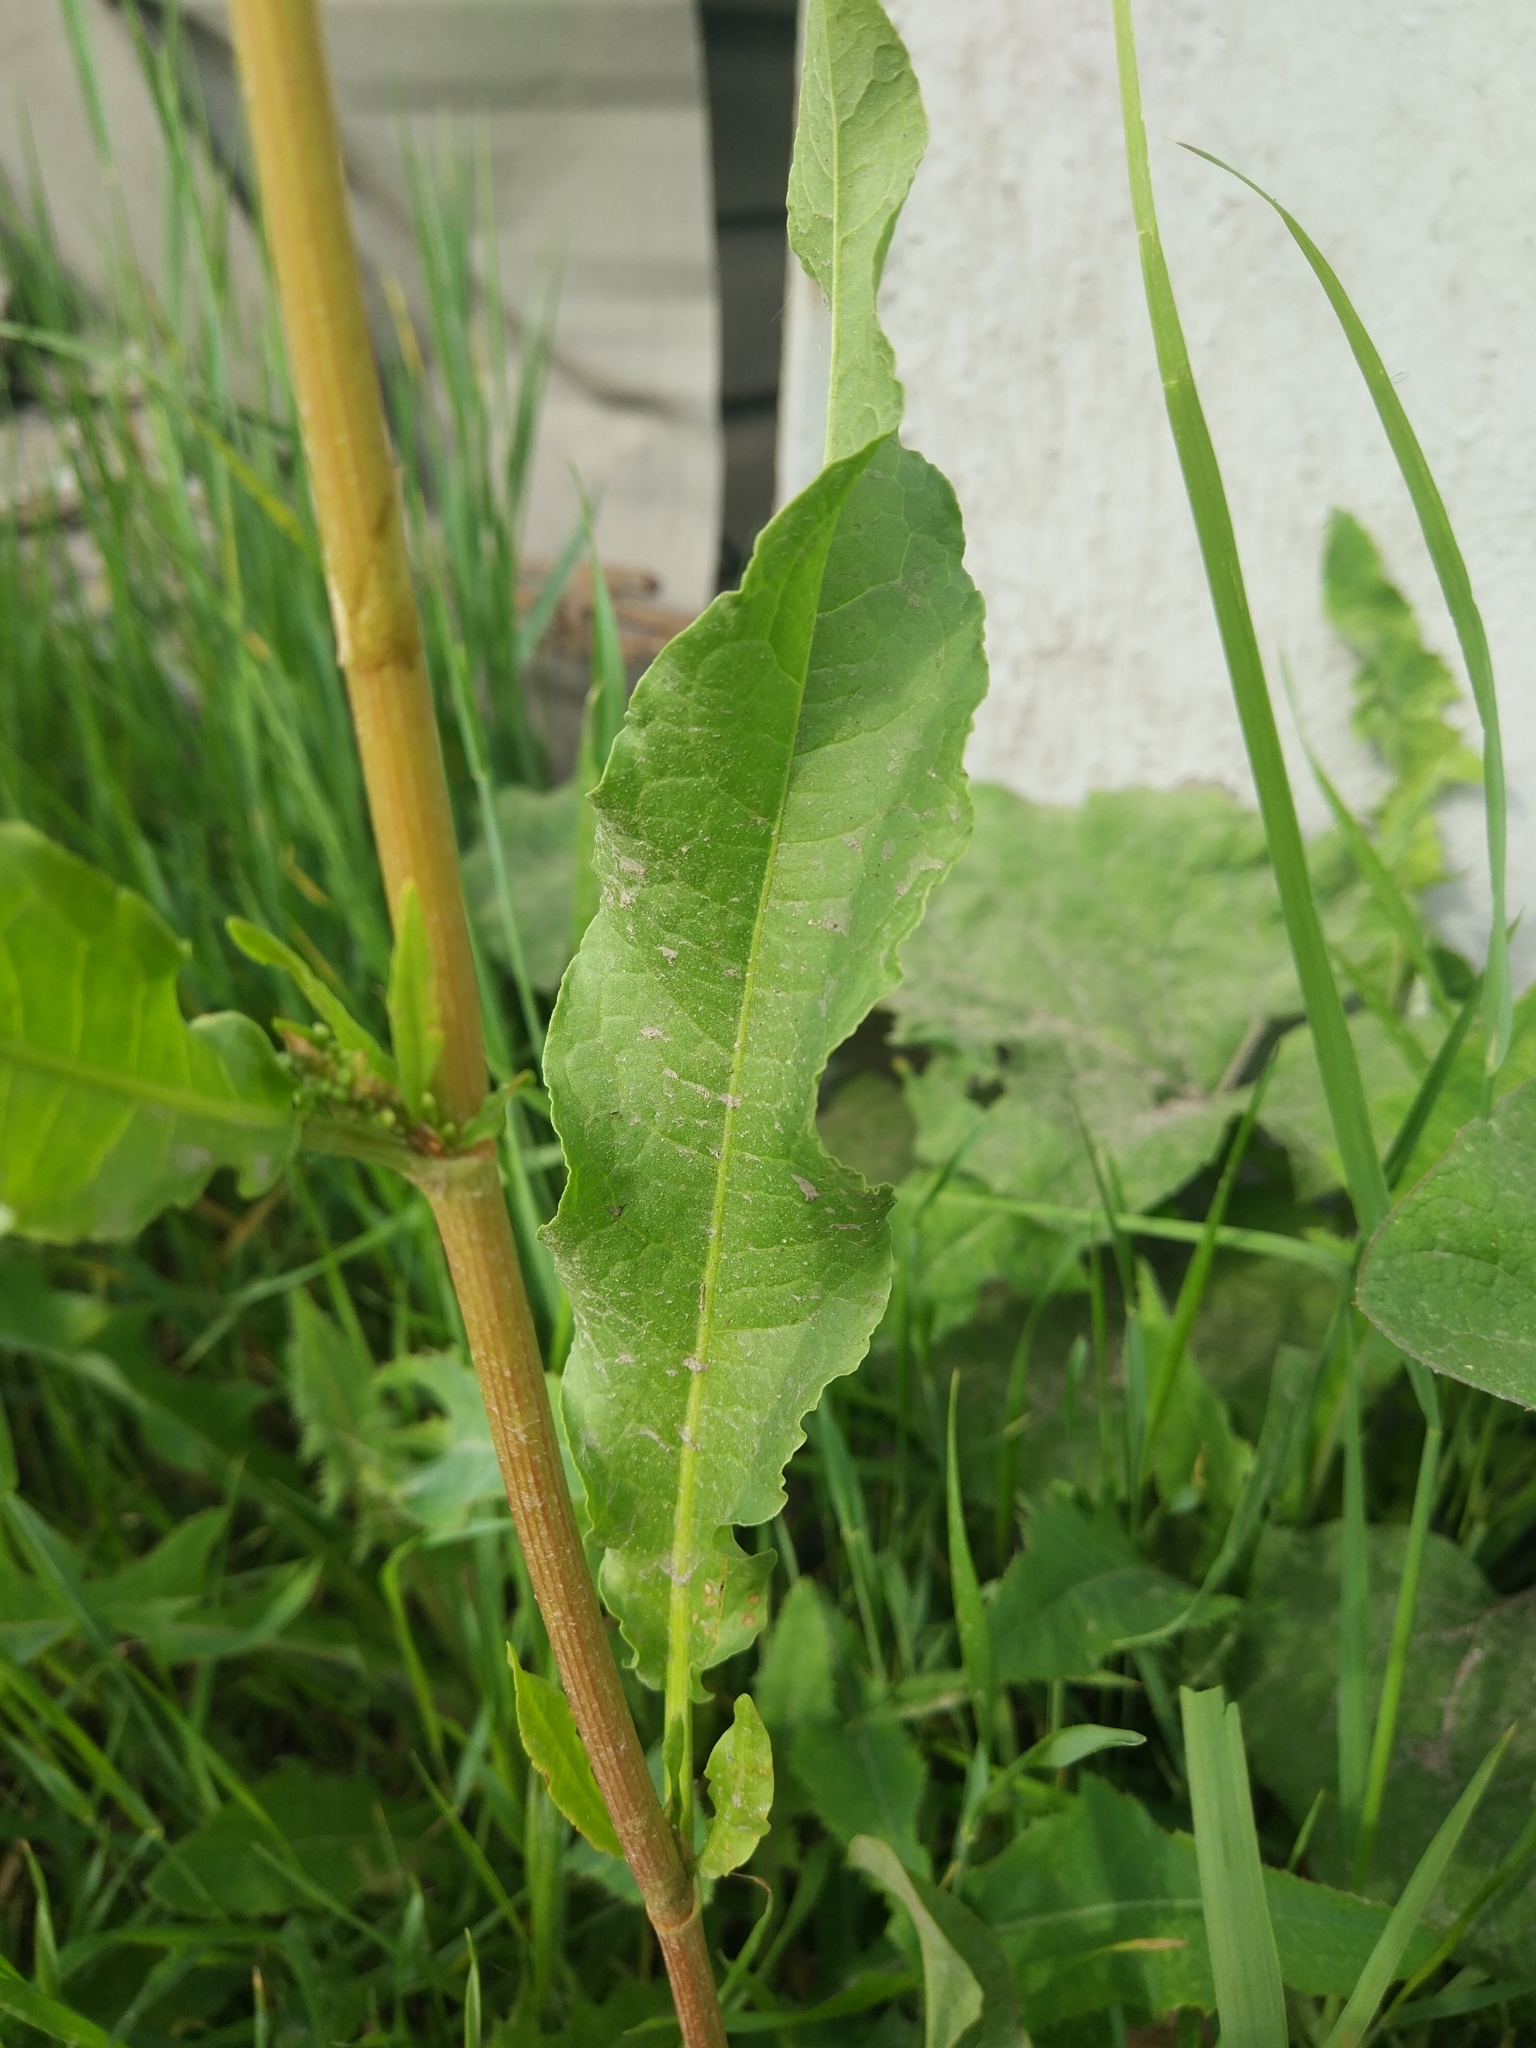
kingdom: Plantae
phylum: Tracheophyta
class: Magnoliopsida
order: Caryophyllales
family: Polygonaceae
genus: Rumex
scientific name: Rumex crispus
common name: Curled dock
